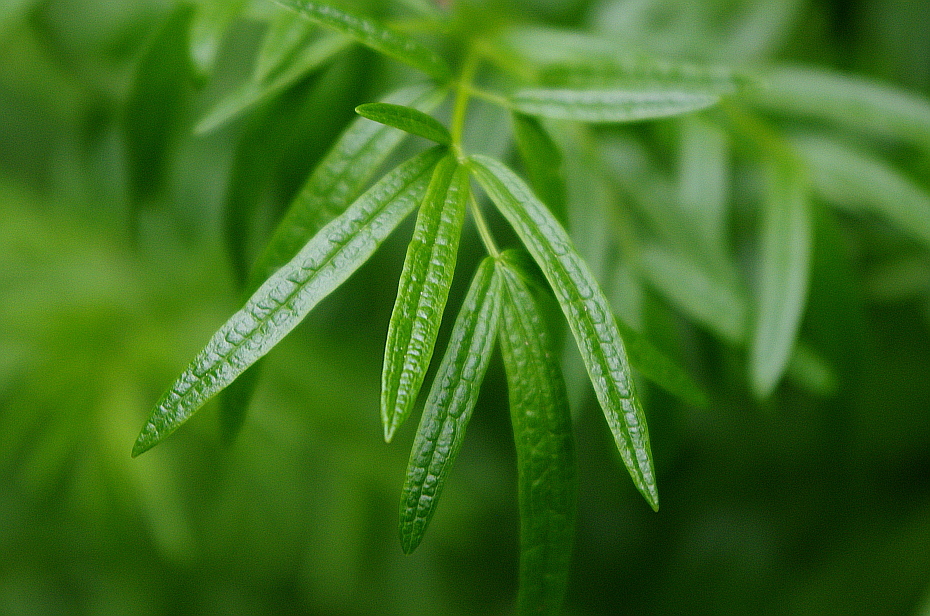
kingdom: Plantae
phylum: Tracheophyta
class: Magnoliopsida
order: Ranunculales
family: Ranunculaceae
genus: Thalictrum
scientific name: Thalictrum lucidum
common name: Shining meadow-rue
